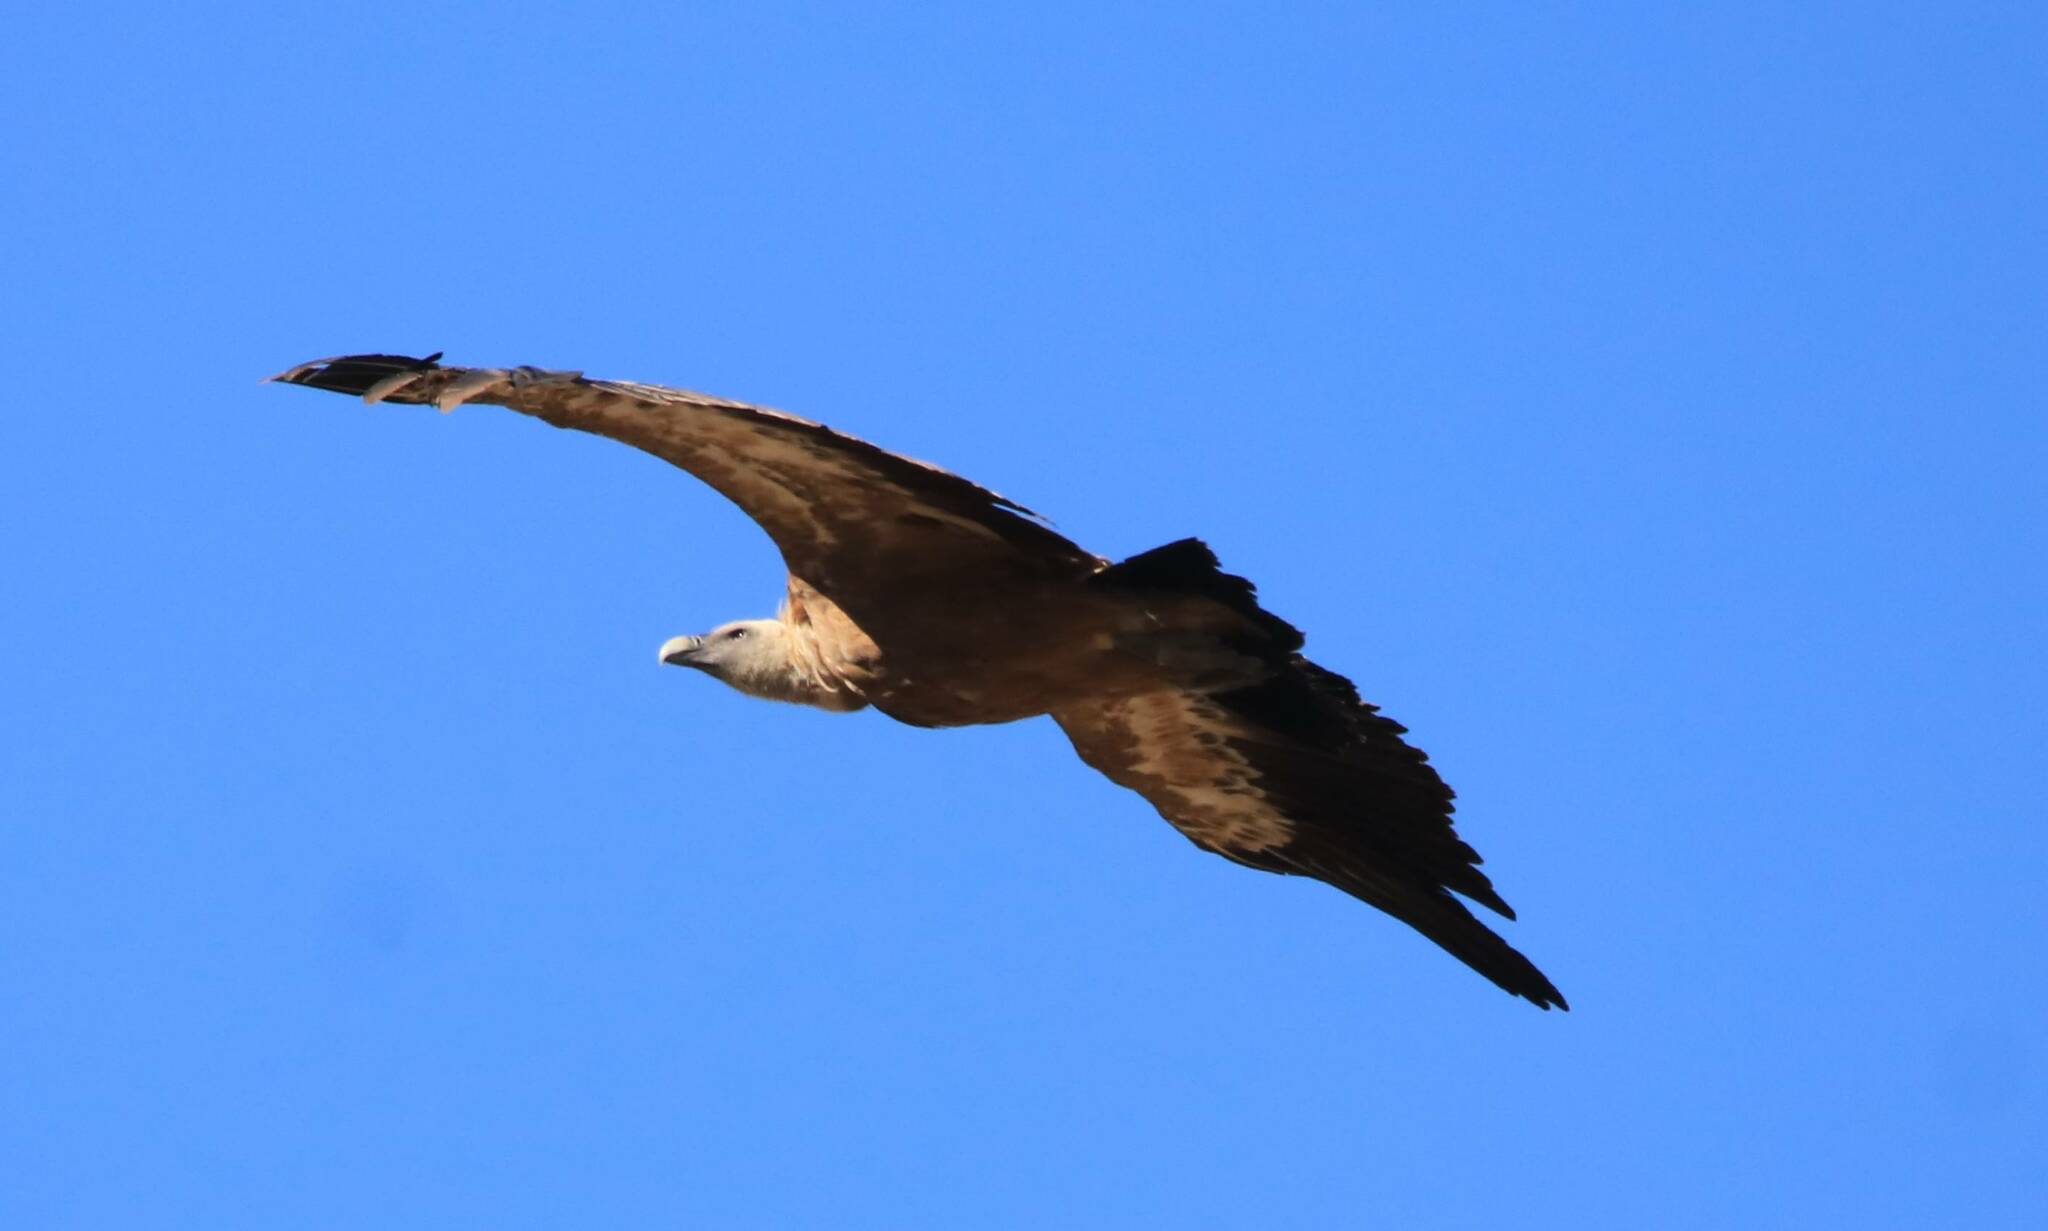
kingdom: Animalia
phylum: Chordata
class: Aves
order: Accipitriformes
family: Accipitridae
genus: Gyps
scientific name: Gyps fulvus
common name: Griffon vulture
